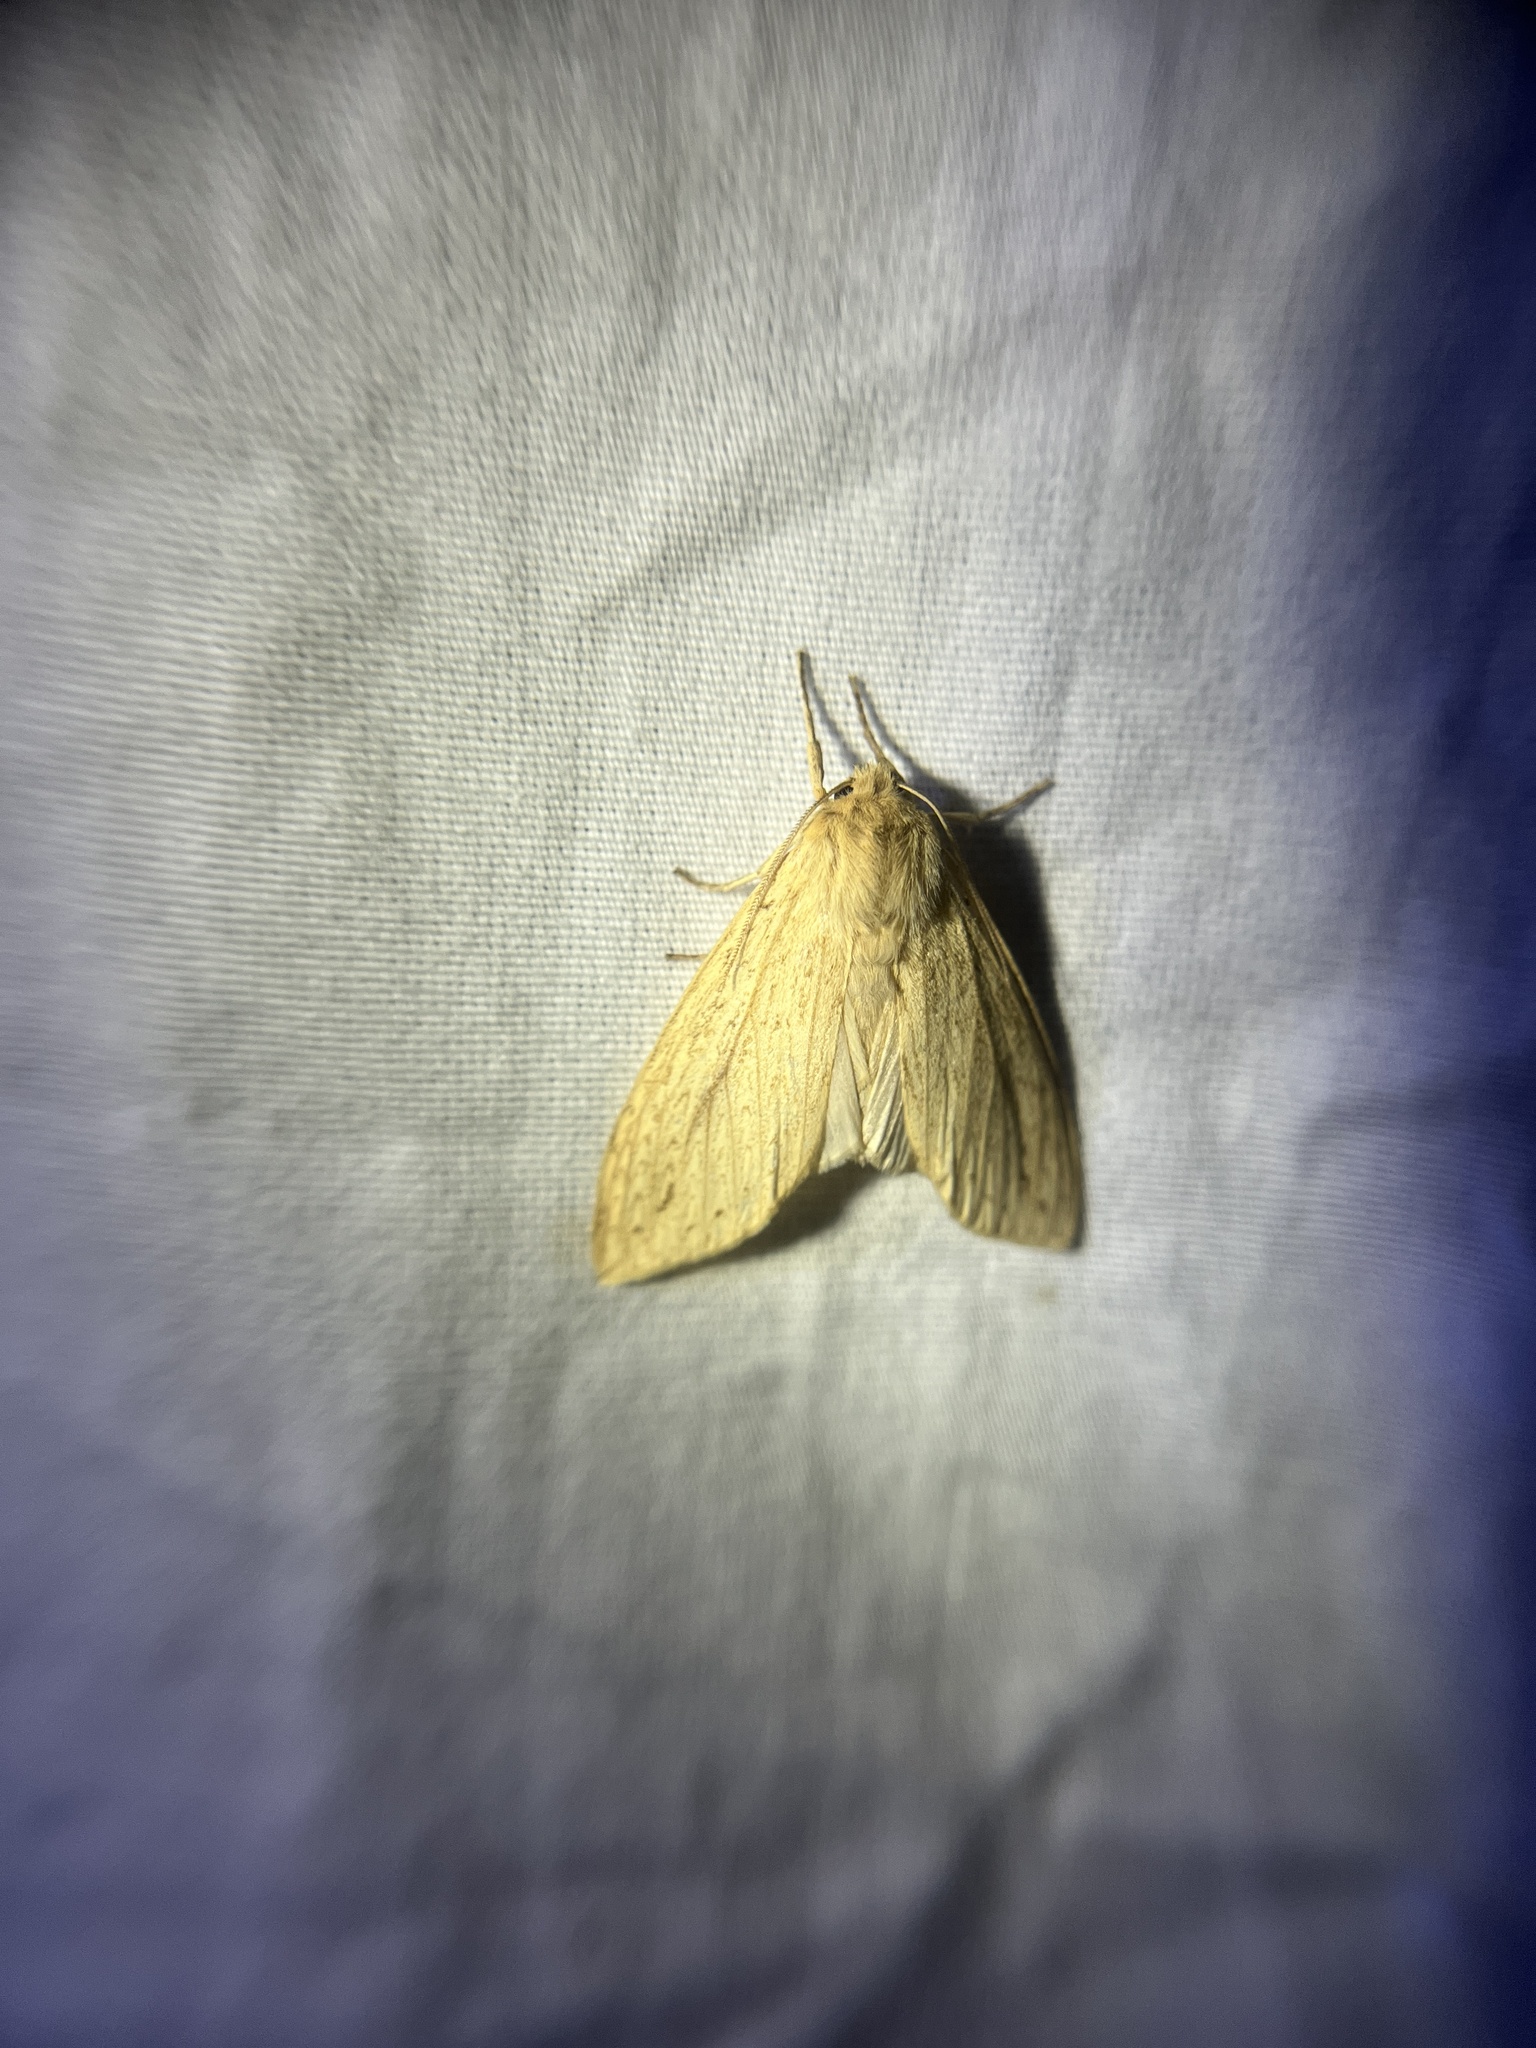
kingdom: Animalia
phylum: Arthropoda
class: Insecta
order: Lepidoptera
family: Erebidae
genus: Leucanopsis
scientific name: Leucanopsis longa
